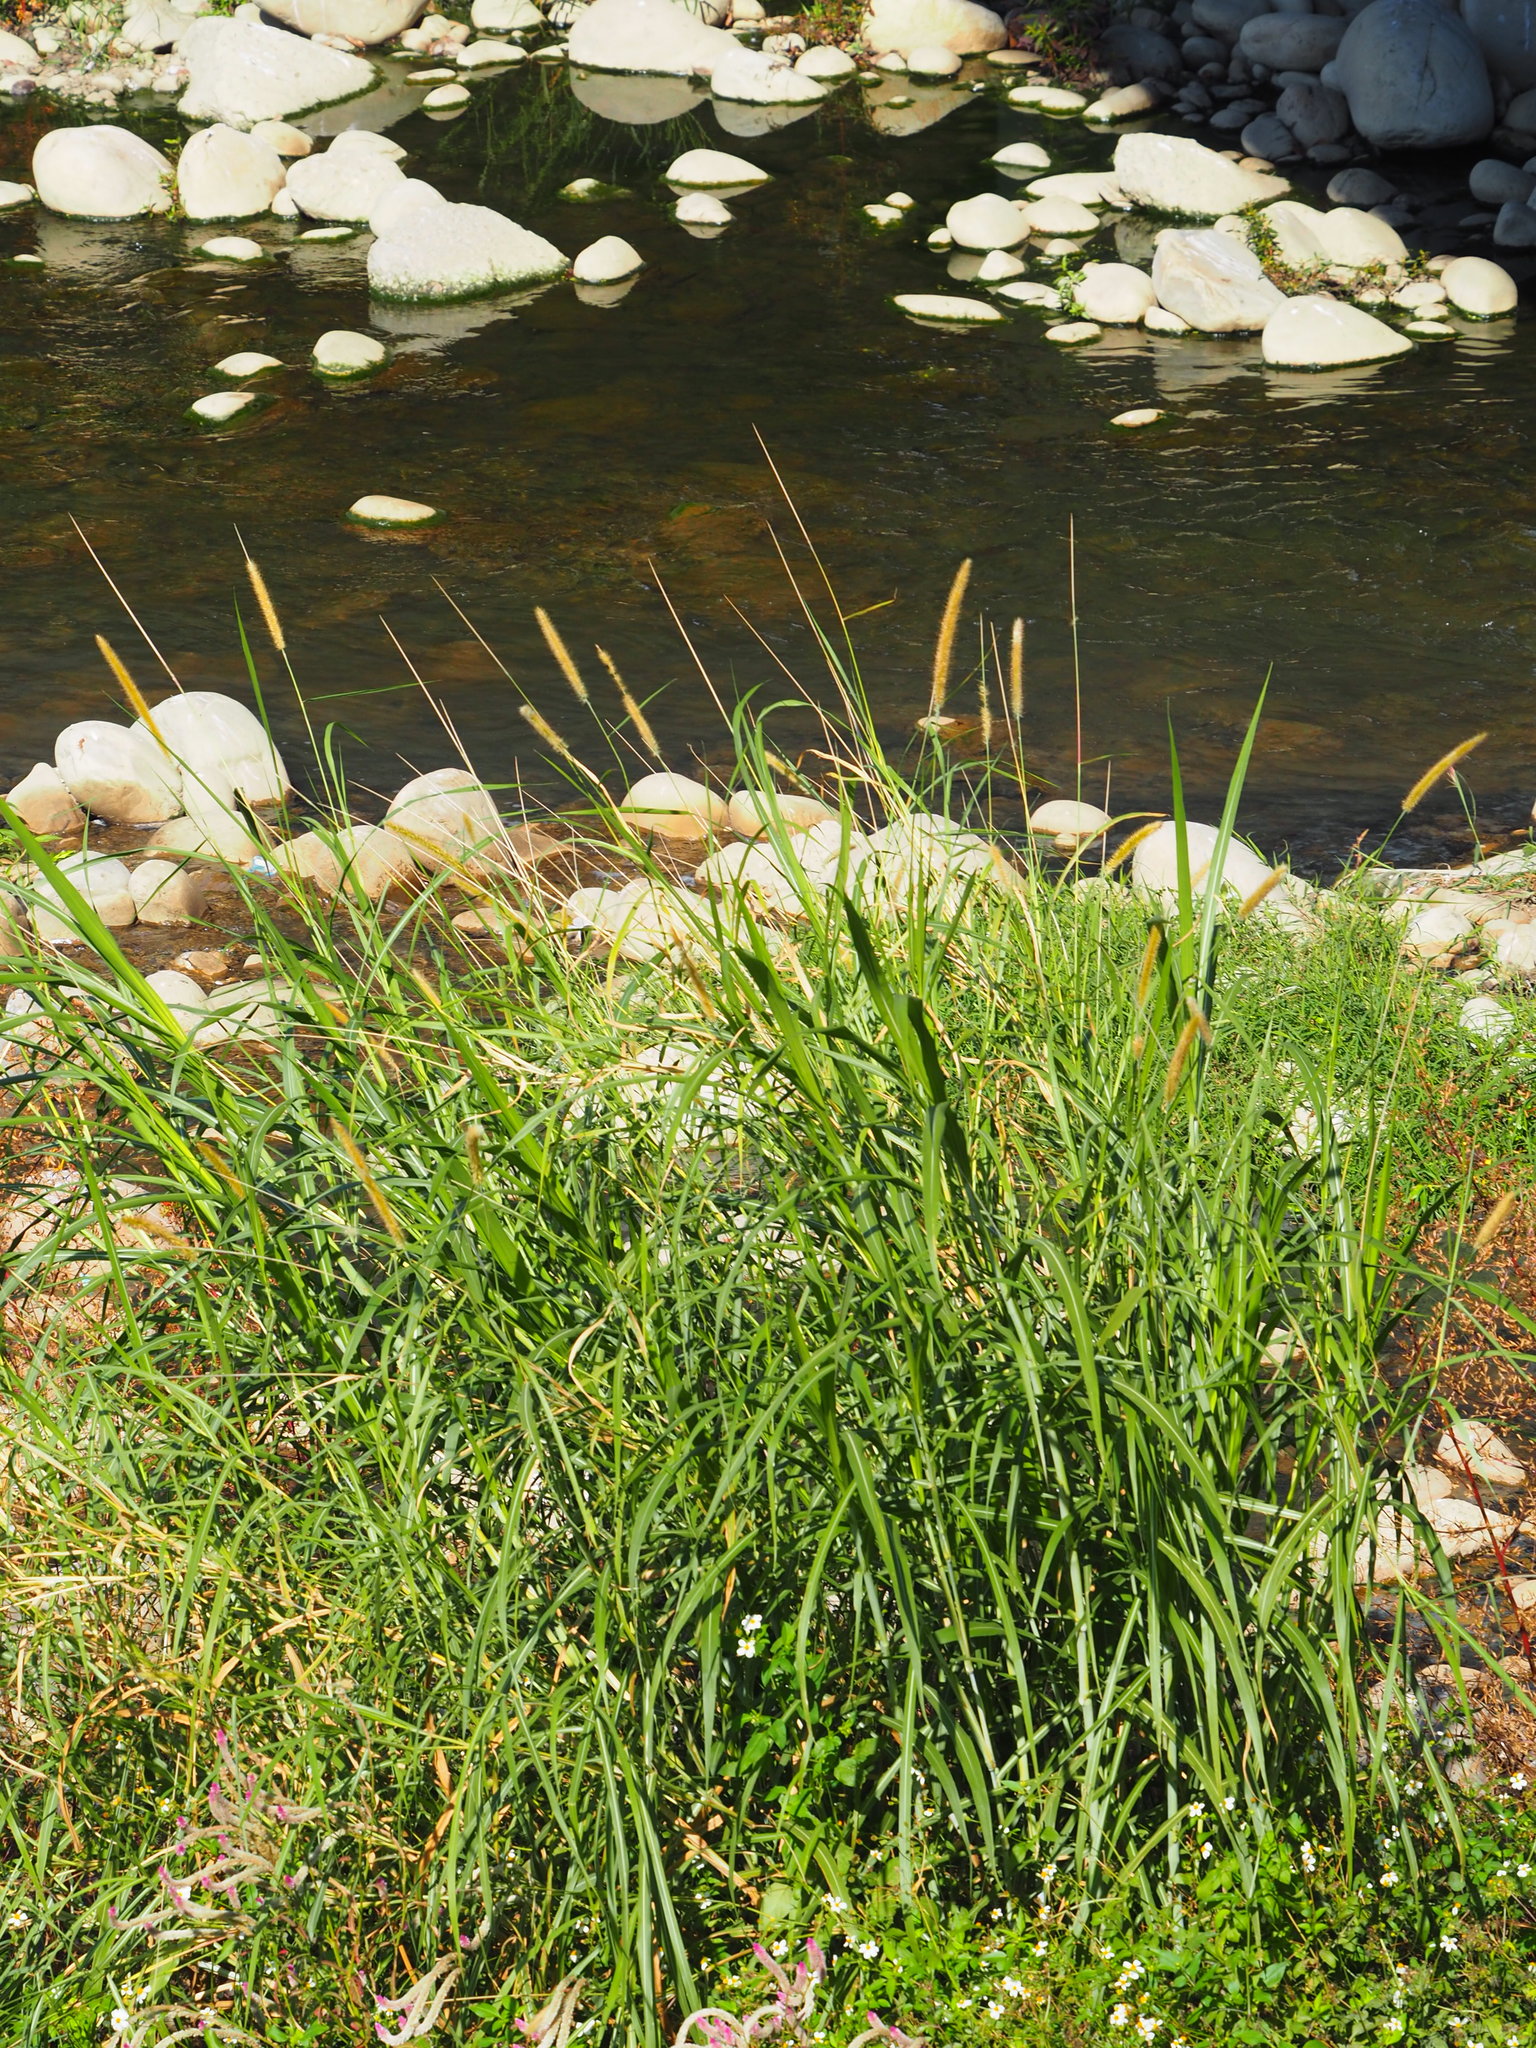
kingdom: Plantae
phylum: Tracheophyta
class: Liliopsida
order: Poales
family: Poaceae
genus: Cenchrus
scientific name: Cenchrus purpureus
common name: Elephant grass
